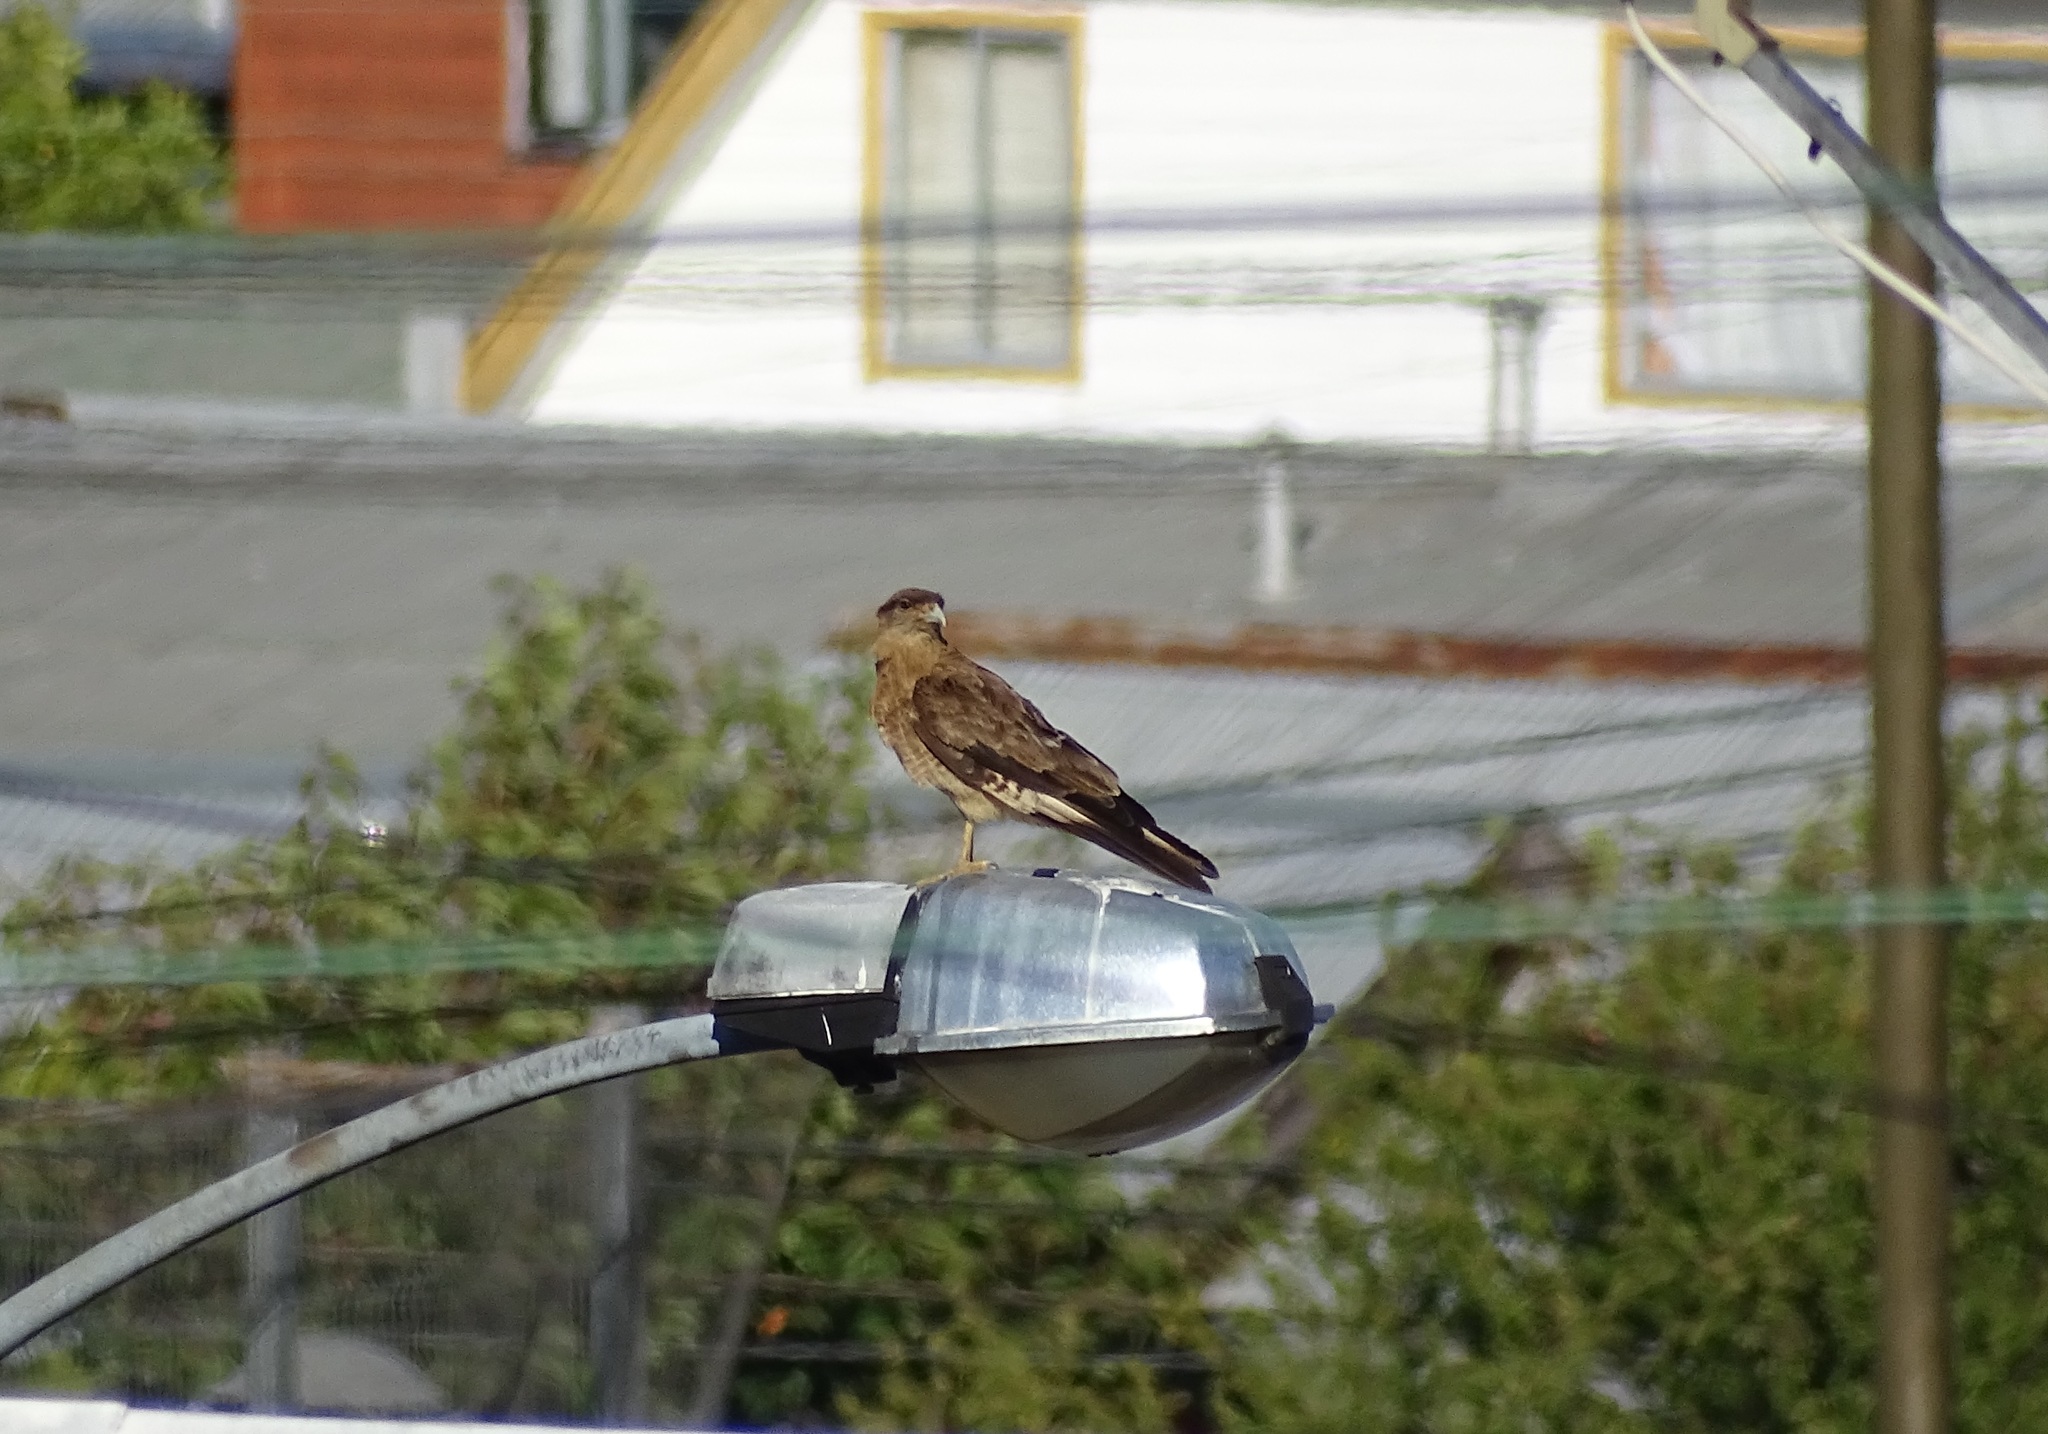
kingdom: Animalia
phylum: Chordata
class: Aves
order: Falconiformes
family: Falconidae
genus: Daptrius
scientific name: Daptrius
